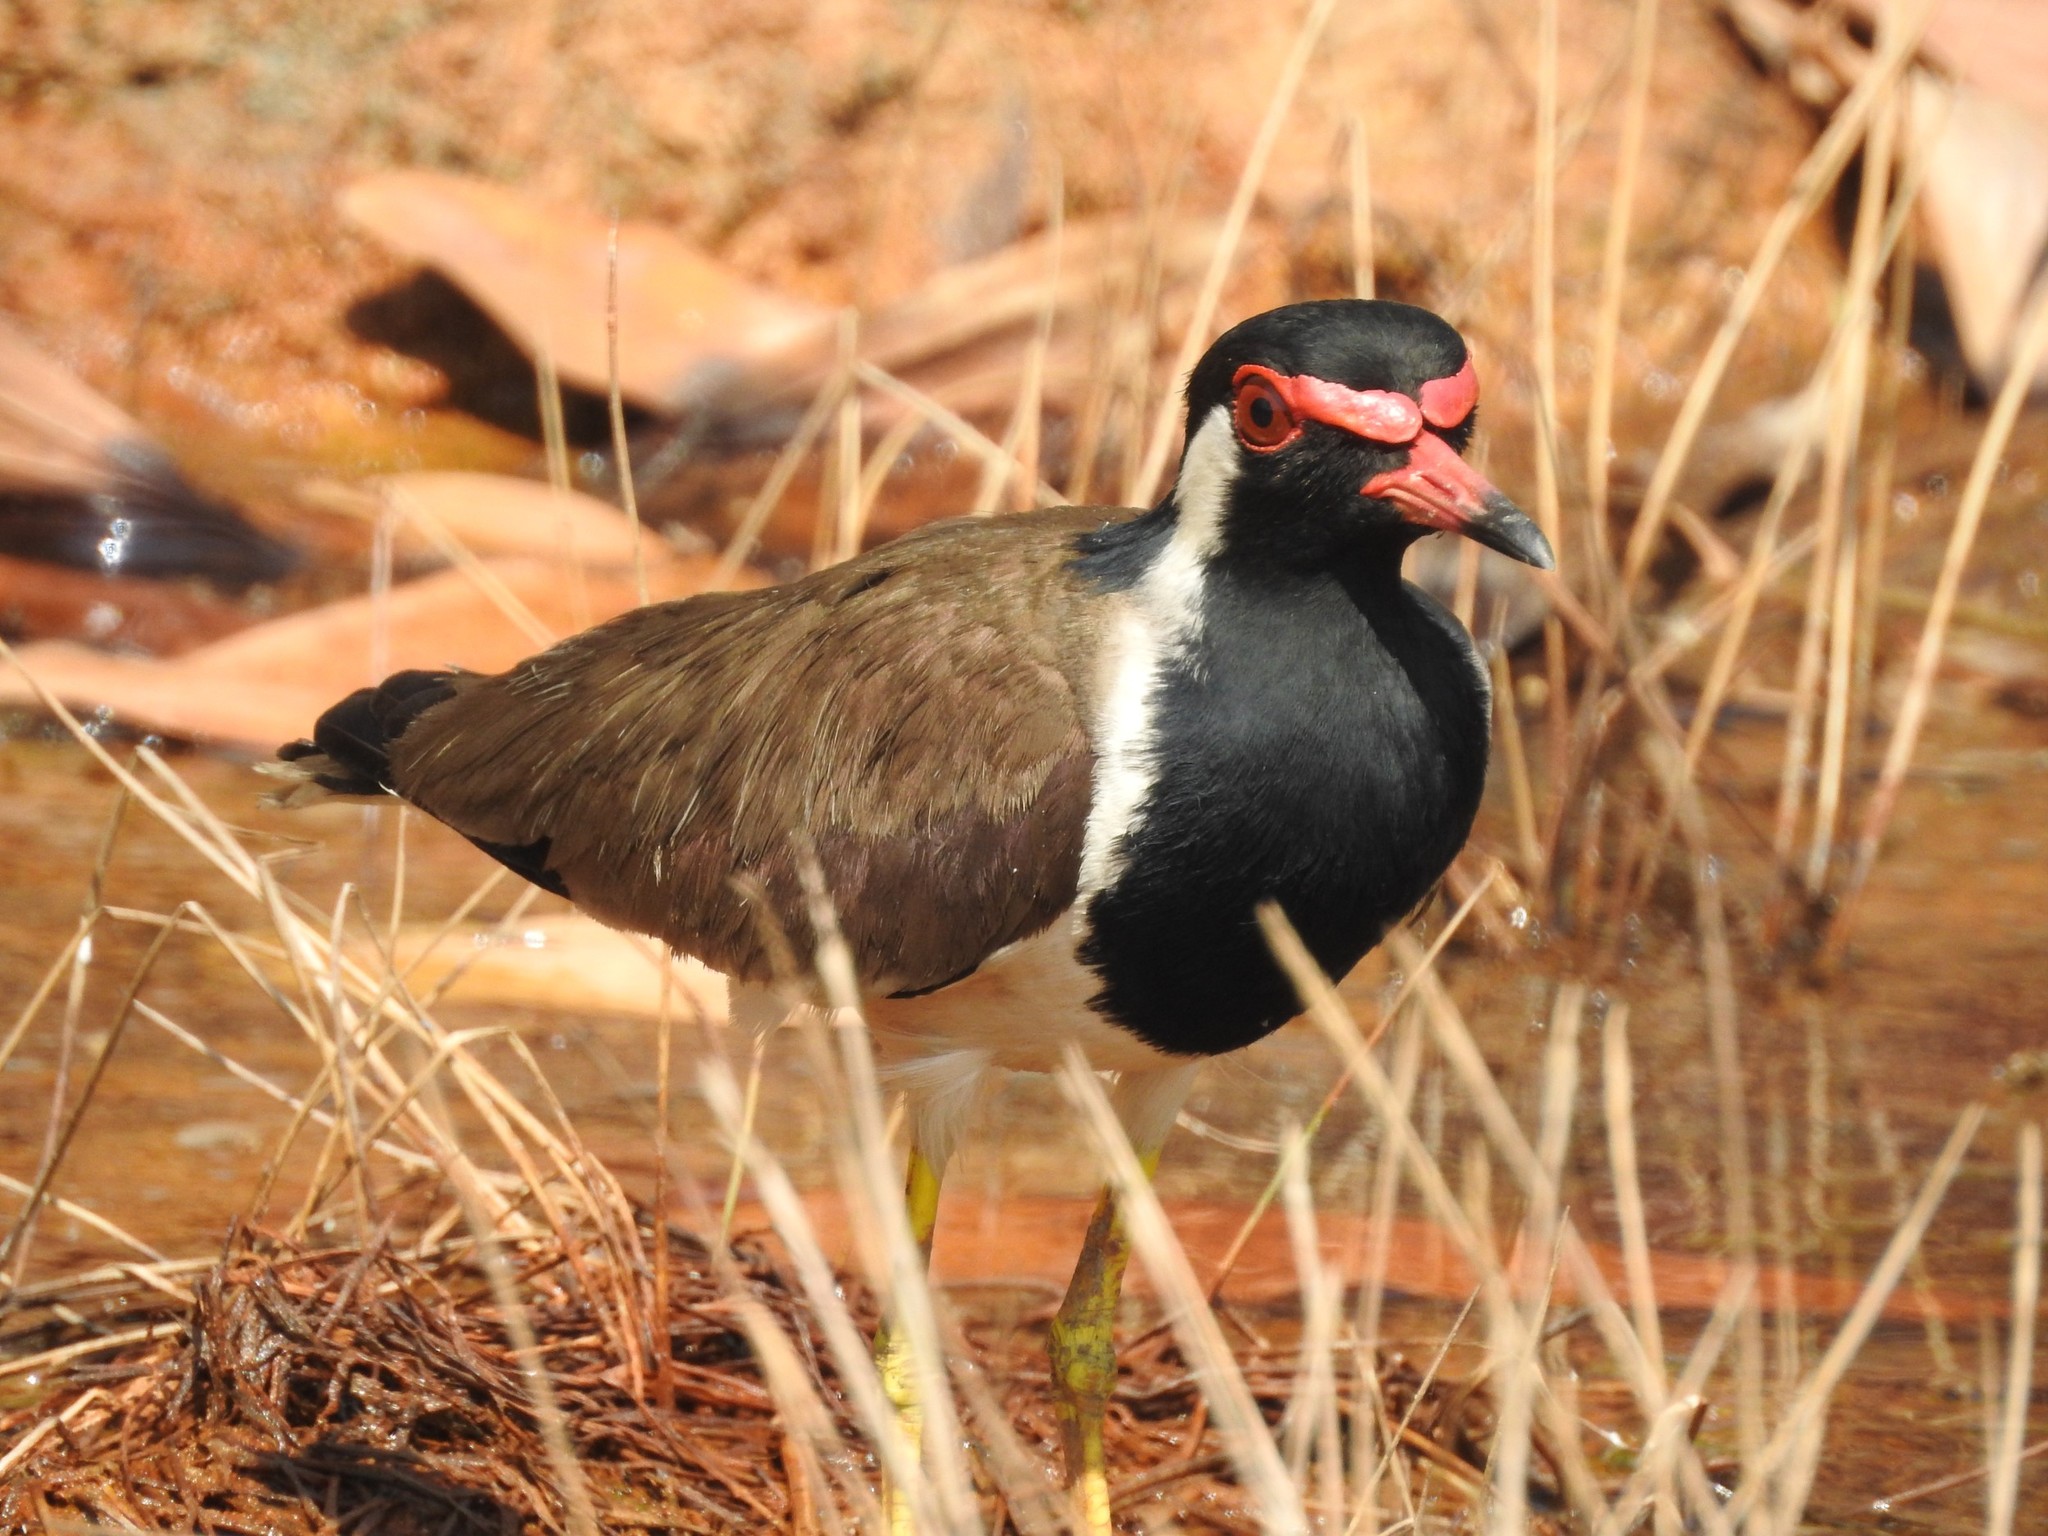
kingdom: Animalia
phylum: Chordata
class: Aves
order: Charadriiformes
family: Charadriidae
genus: Vanellus
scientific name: Vanellus indicus
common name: Red-wattled lapwing
